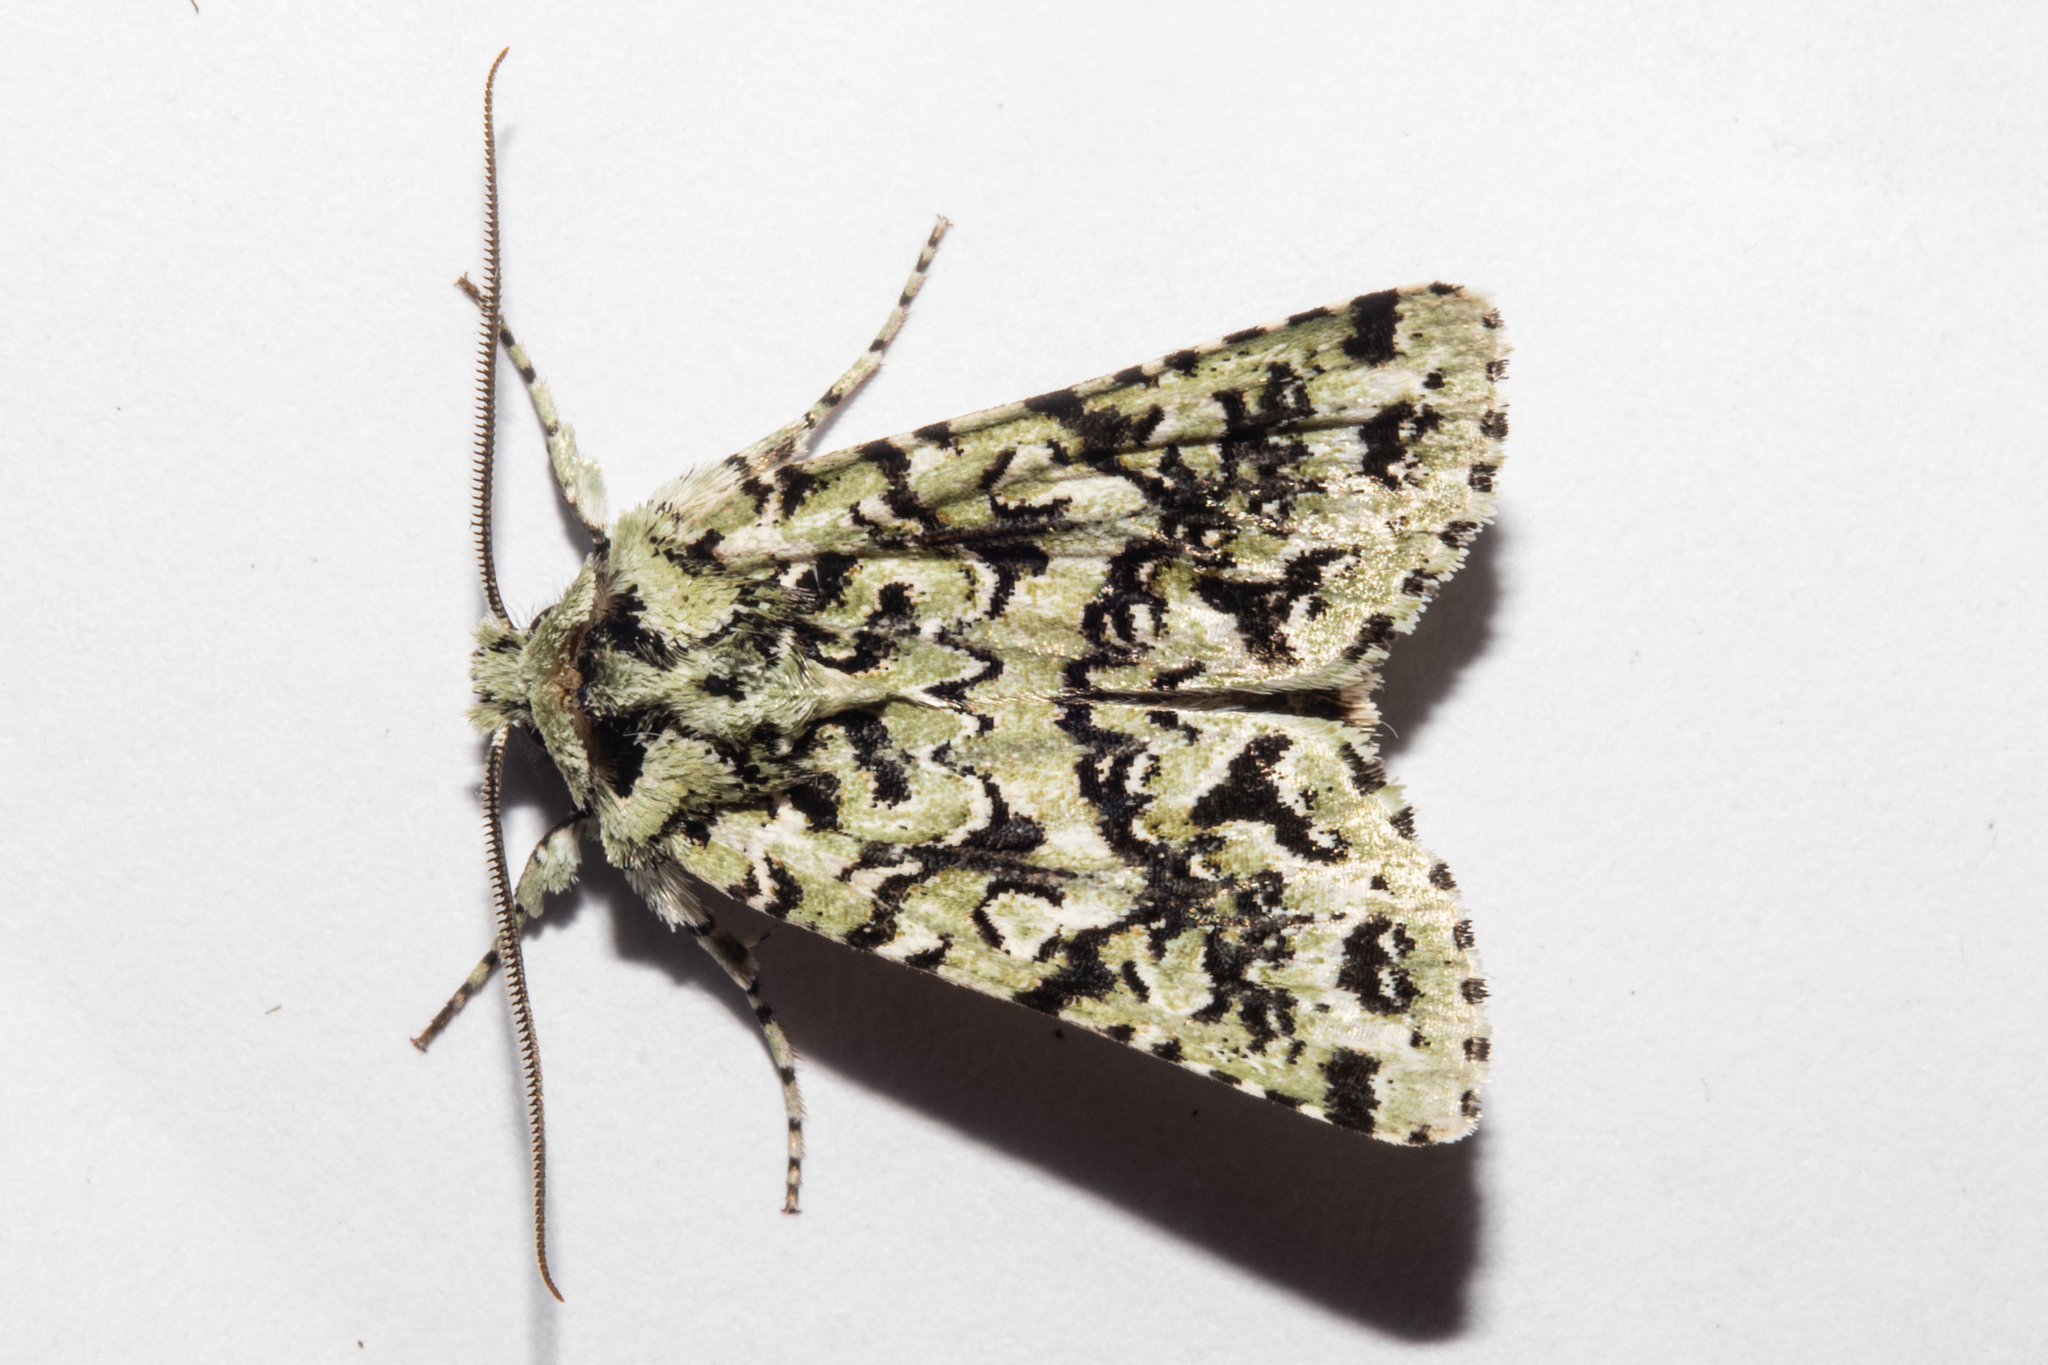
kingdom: Animalia
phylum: Arthropoda
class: Insecta
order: Lepidoptera
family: Noctuidae
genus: Meterana
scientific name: Meterana
